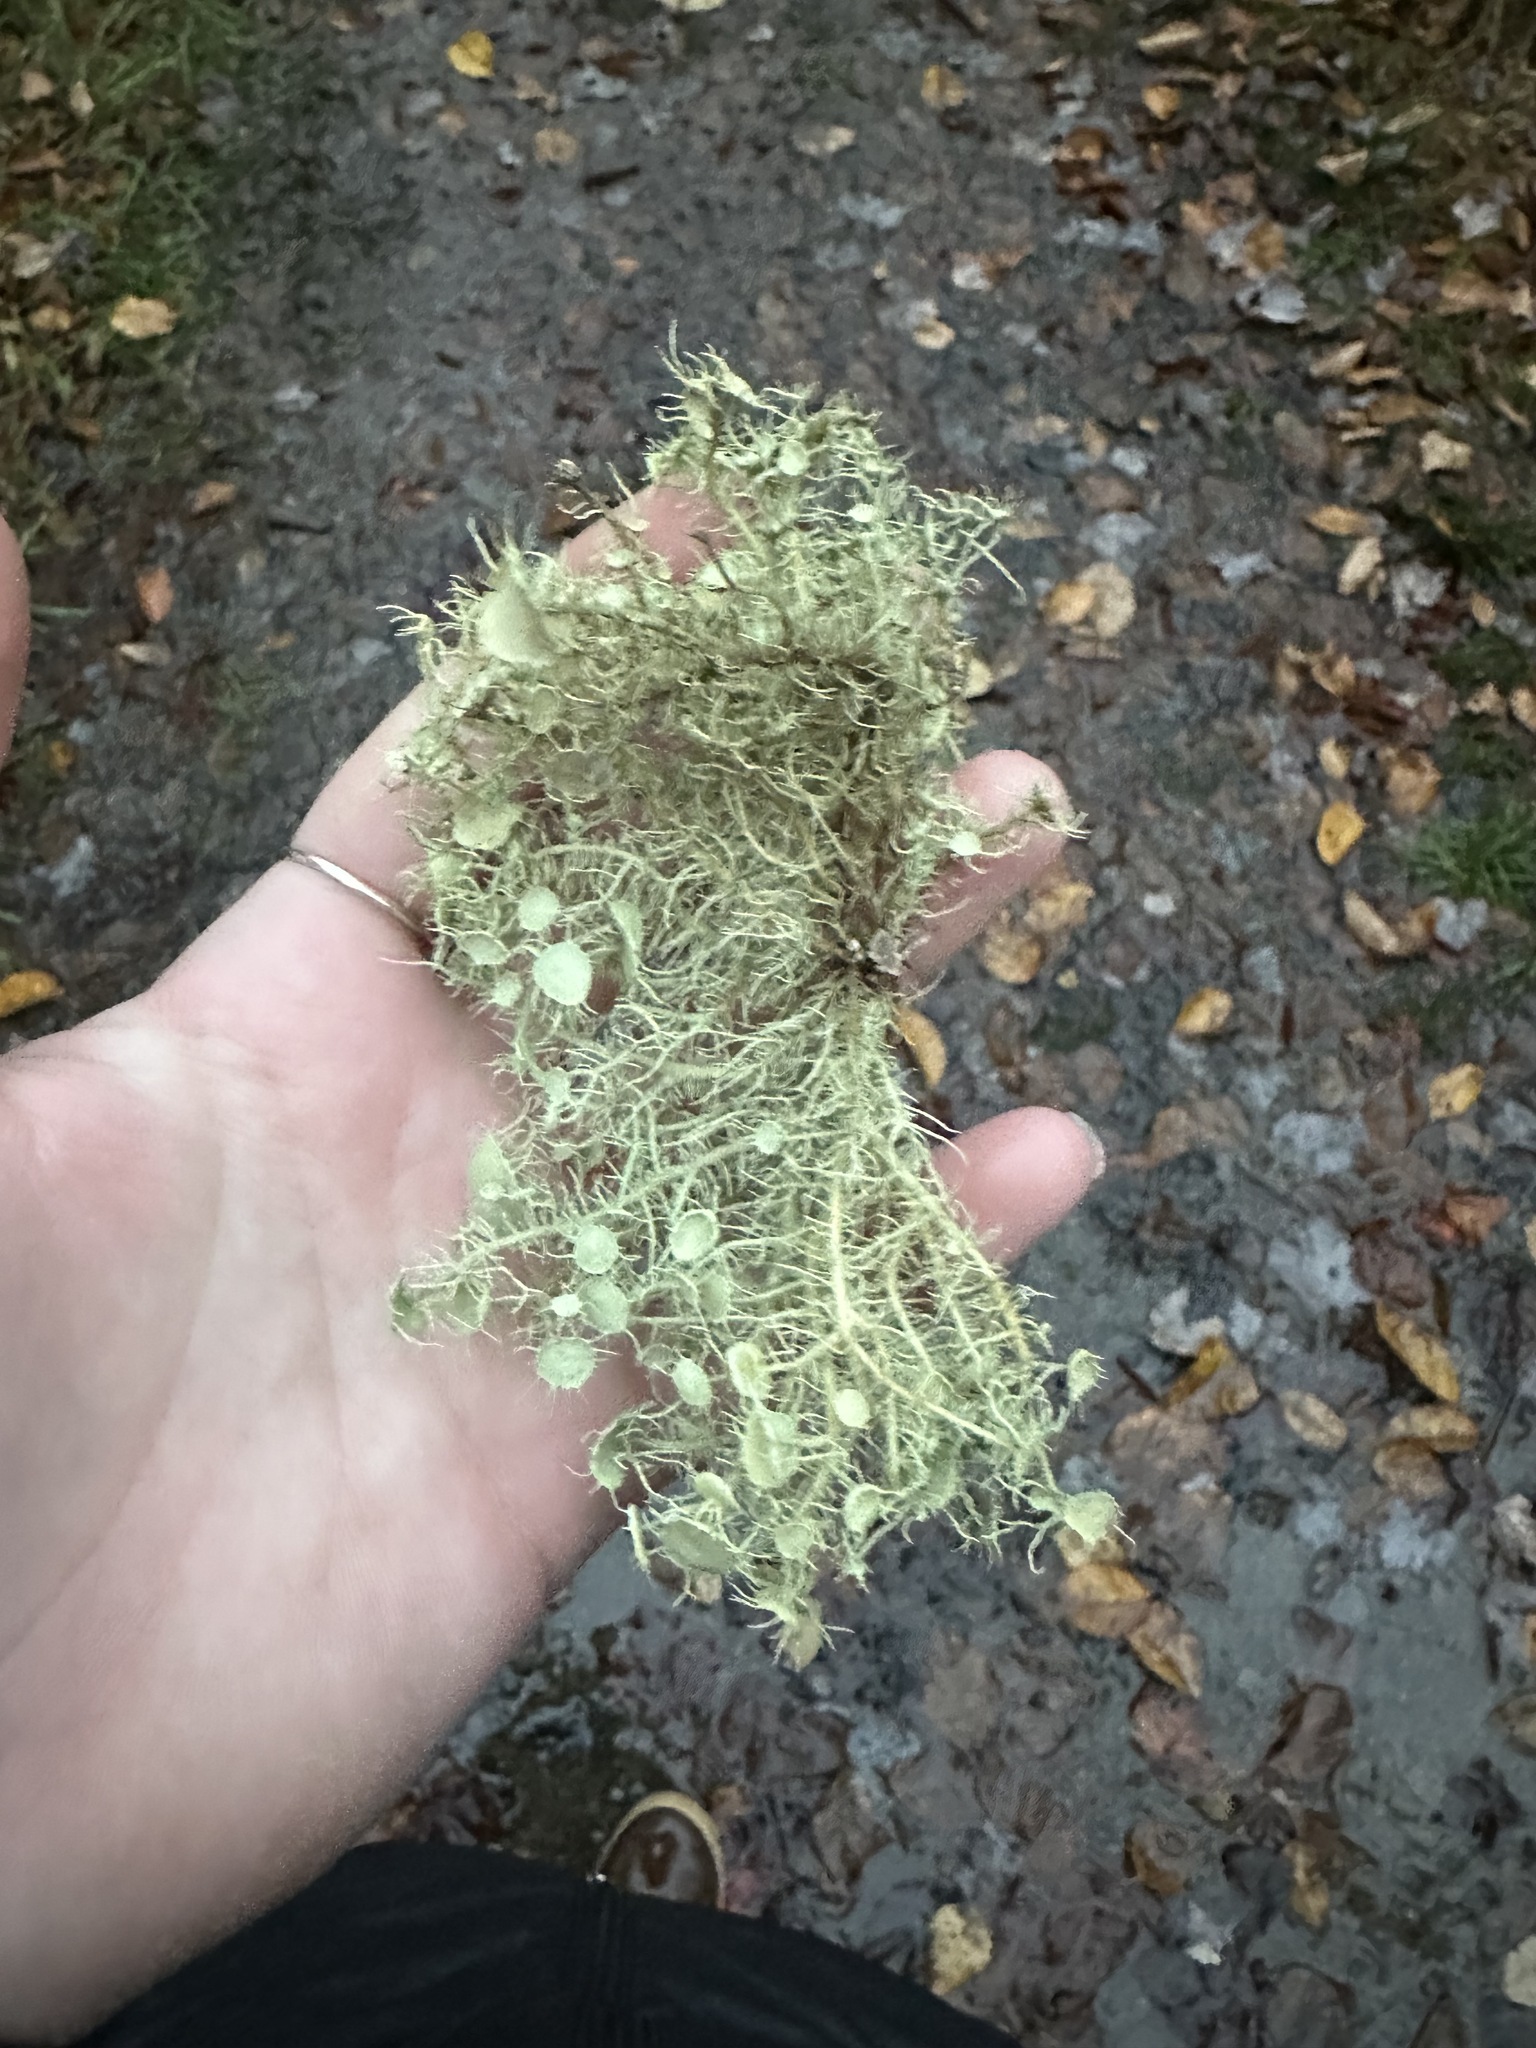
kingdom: Fungi
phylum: Ascomycota
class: Lecanoromycetes
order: Lecanorales
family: Parmeliaceae
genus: Usnea
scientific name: Usnea strigosa
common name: Bushy beard lichen
